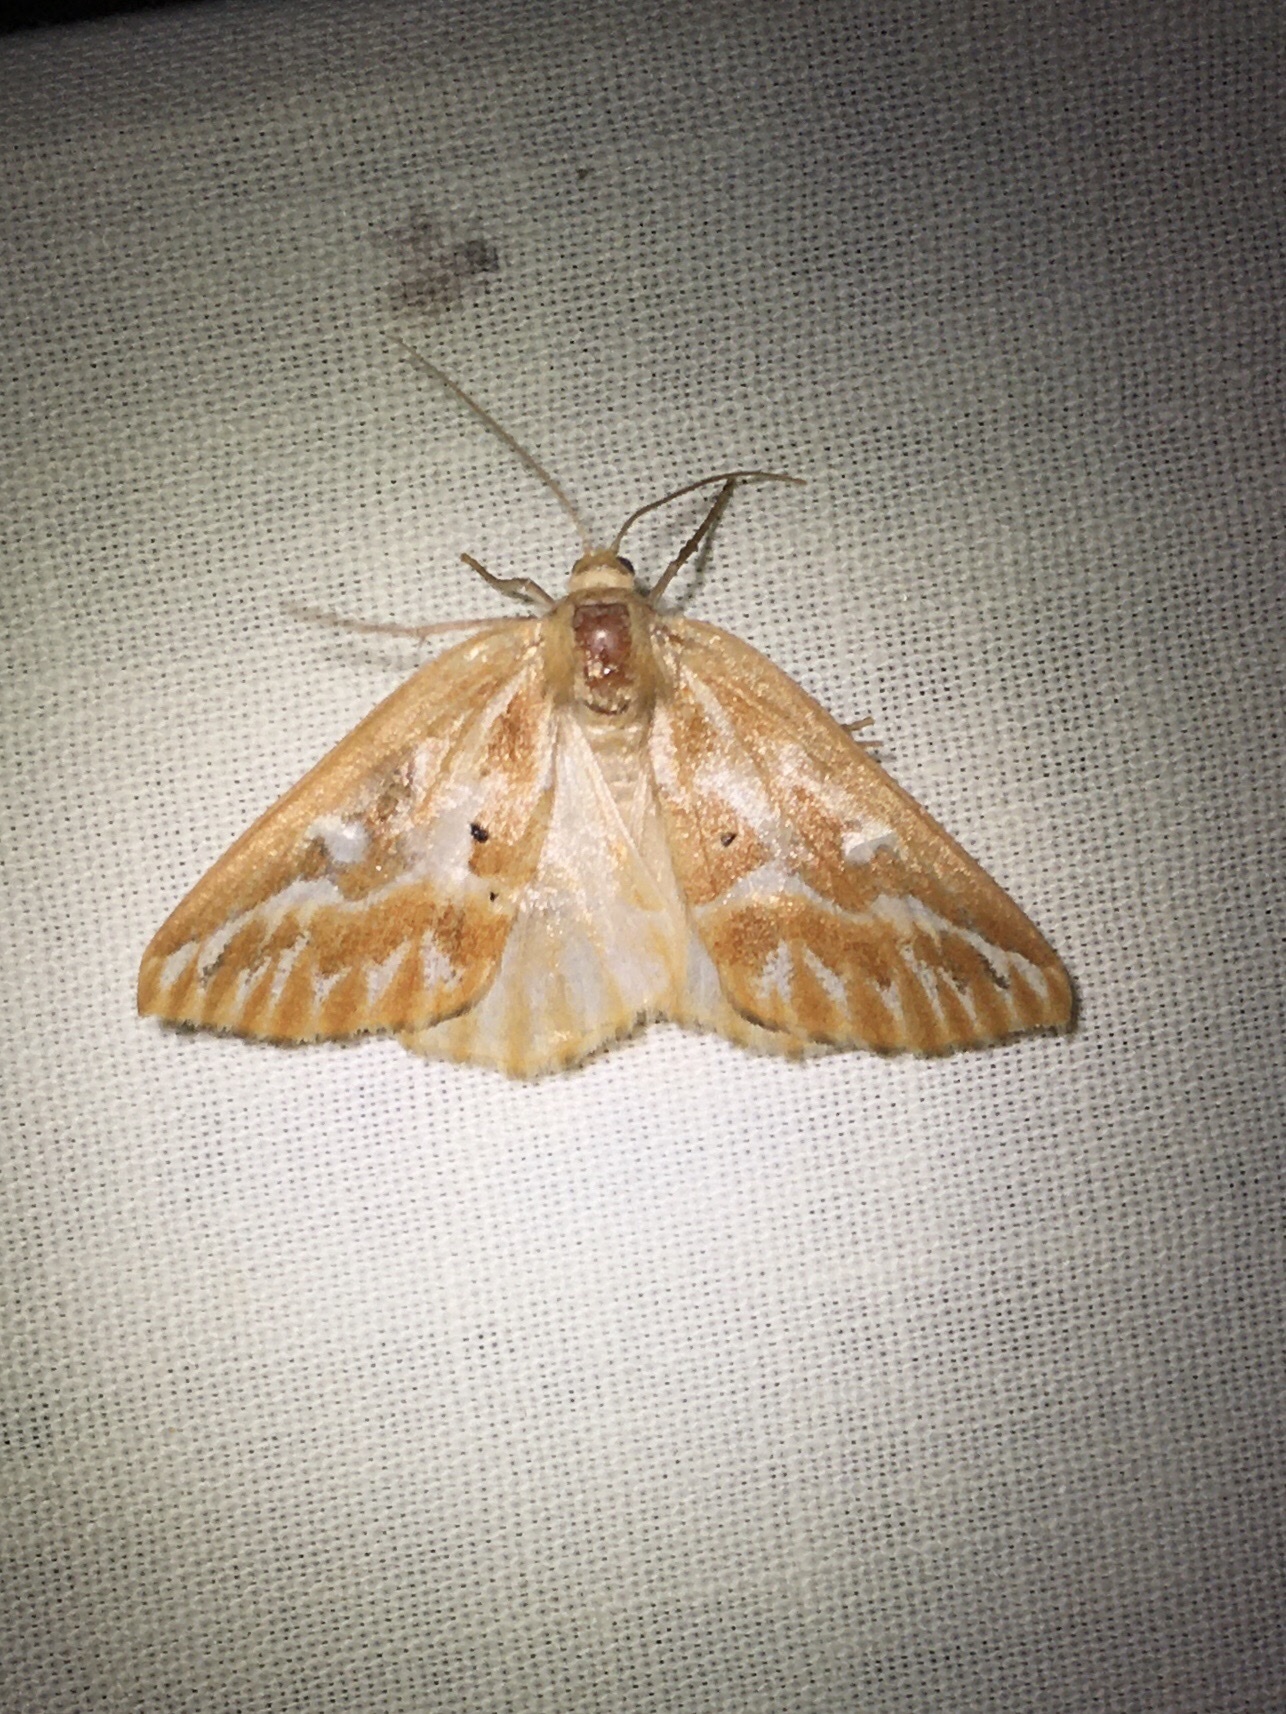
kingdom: Animalia
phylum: Arthropoda
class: Insecta
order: Lepidoptera
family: Geometridae
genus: Caripeta
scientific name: Caripeta piniata
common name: Northern pine looper moth
